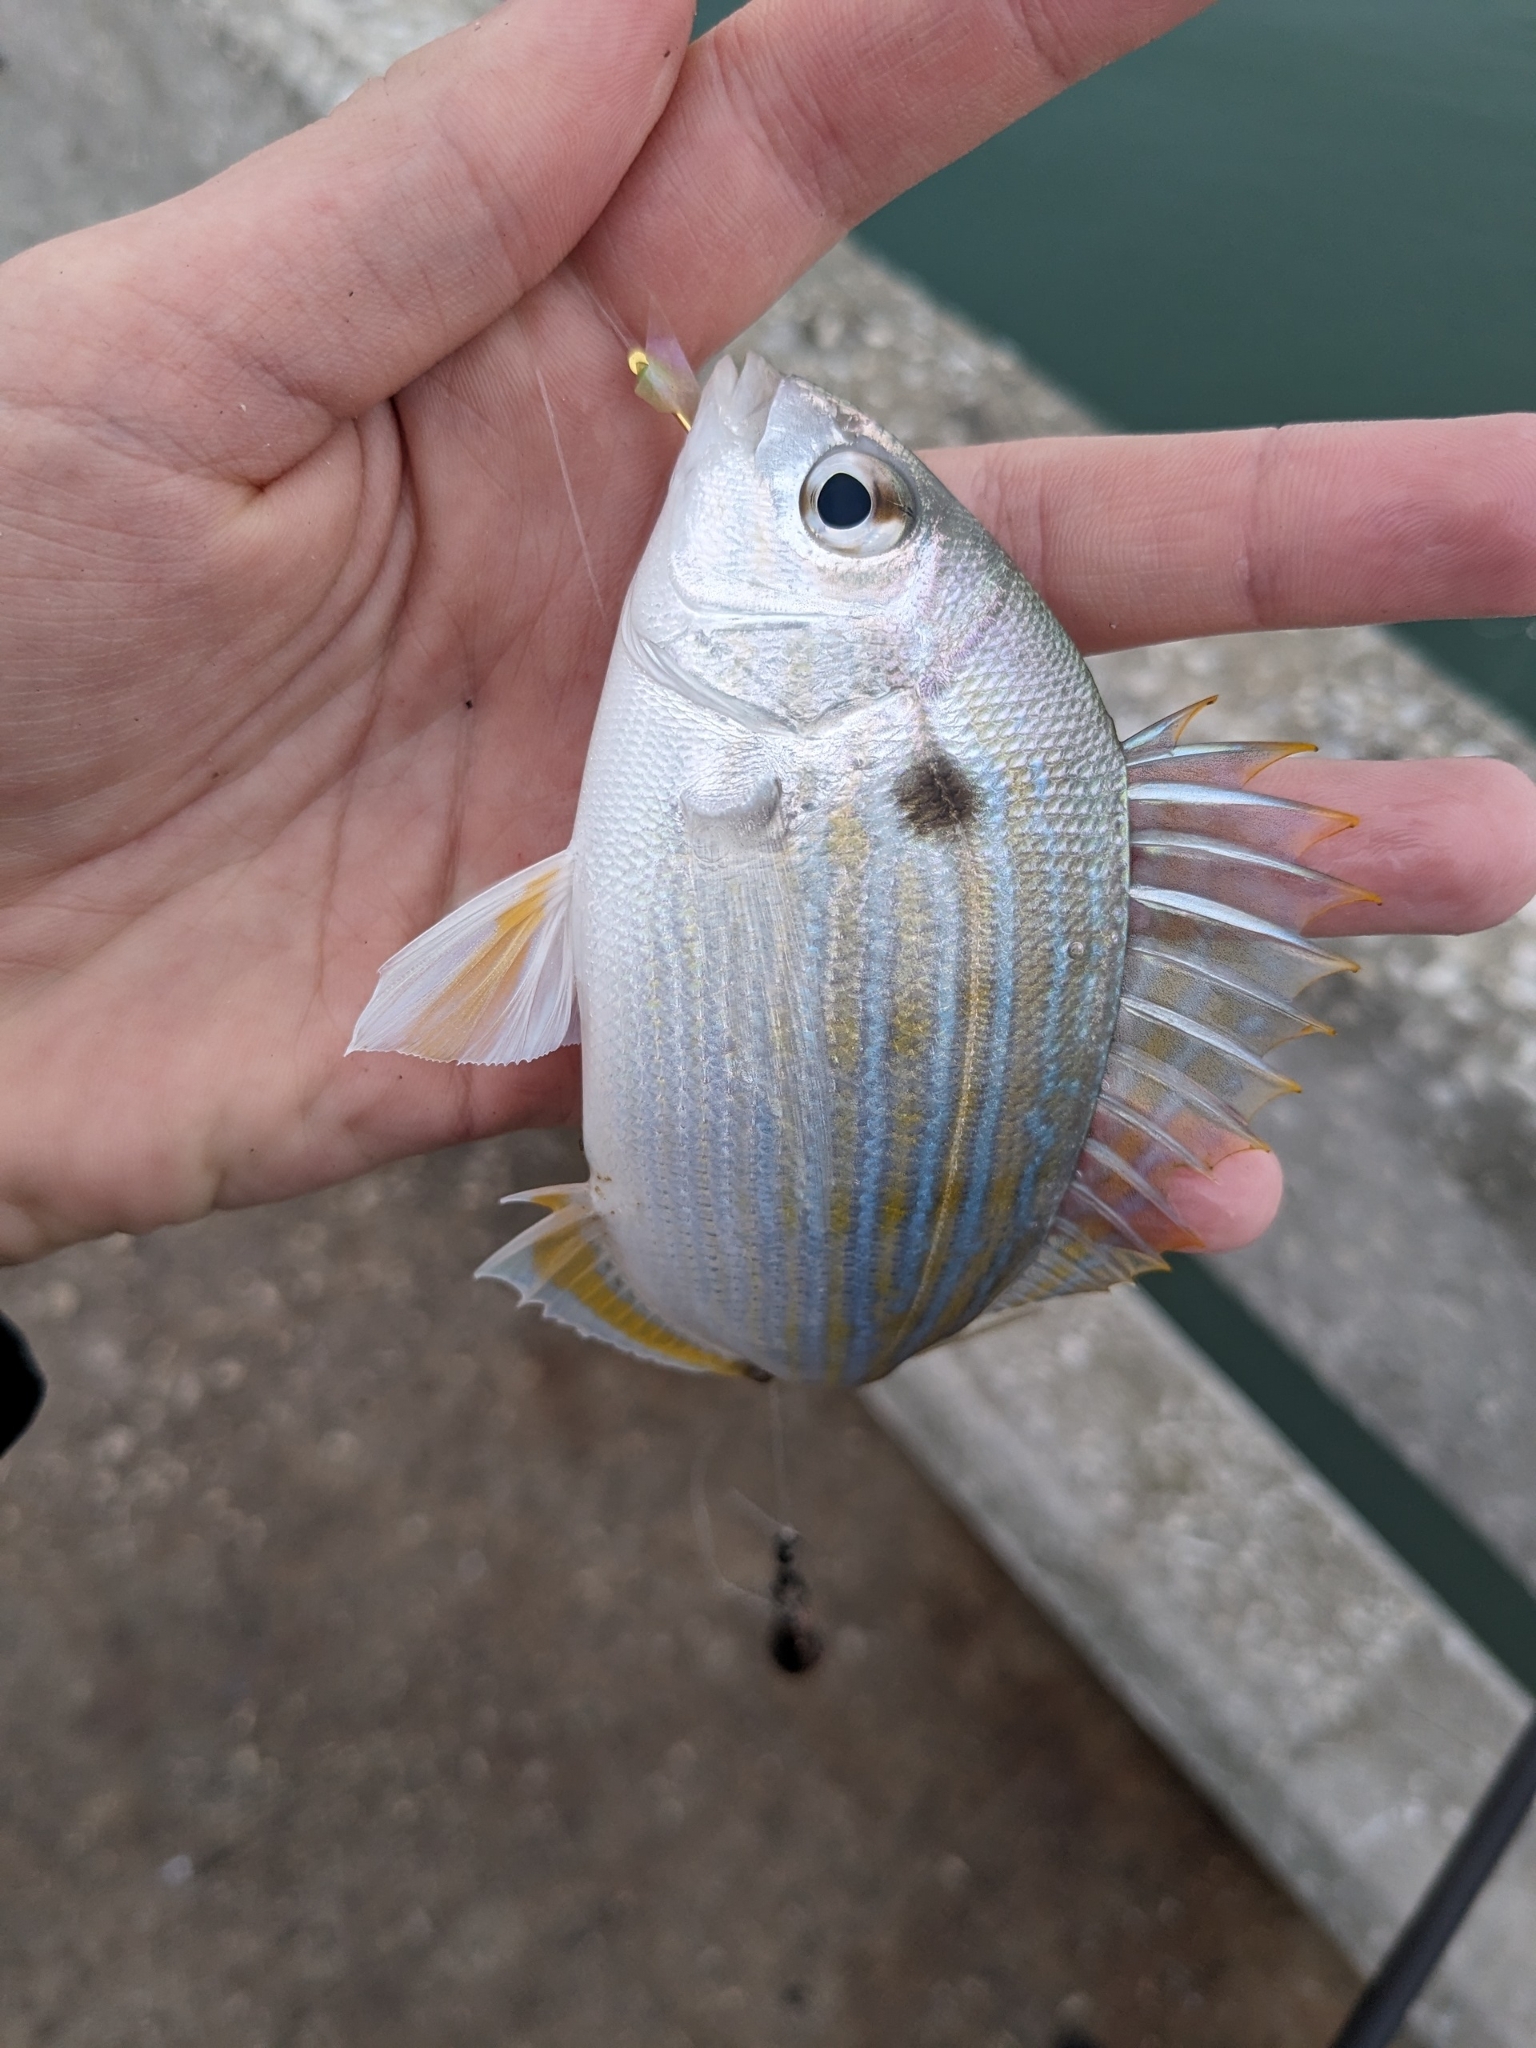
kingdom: Animalia
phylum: Chordata
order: Perciformes
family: Sparidae
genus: Lagodon
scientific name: Lagodon rhomboides
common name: Pinfish
